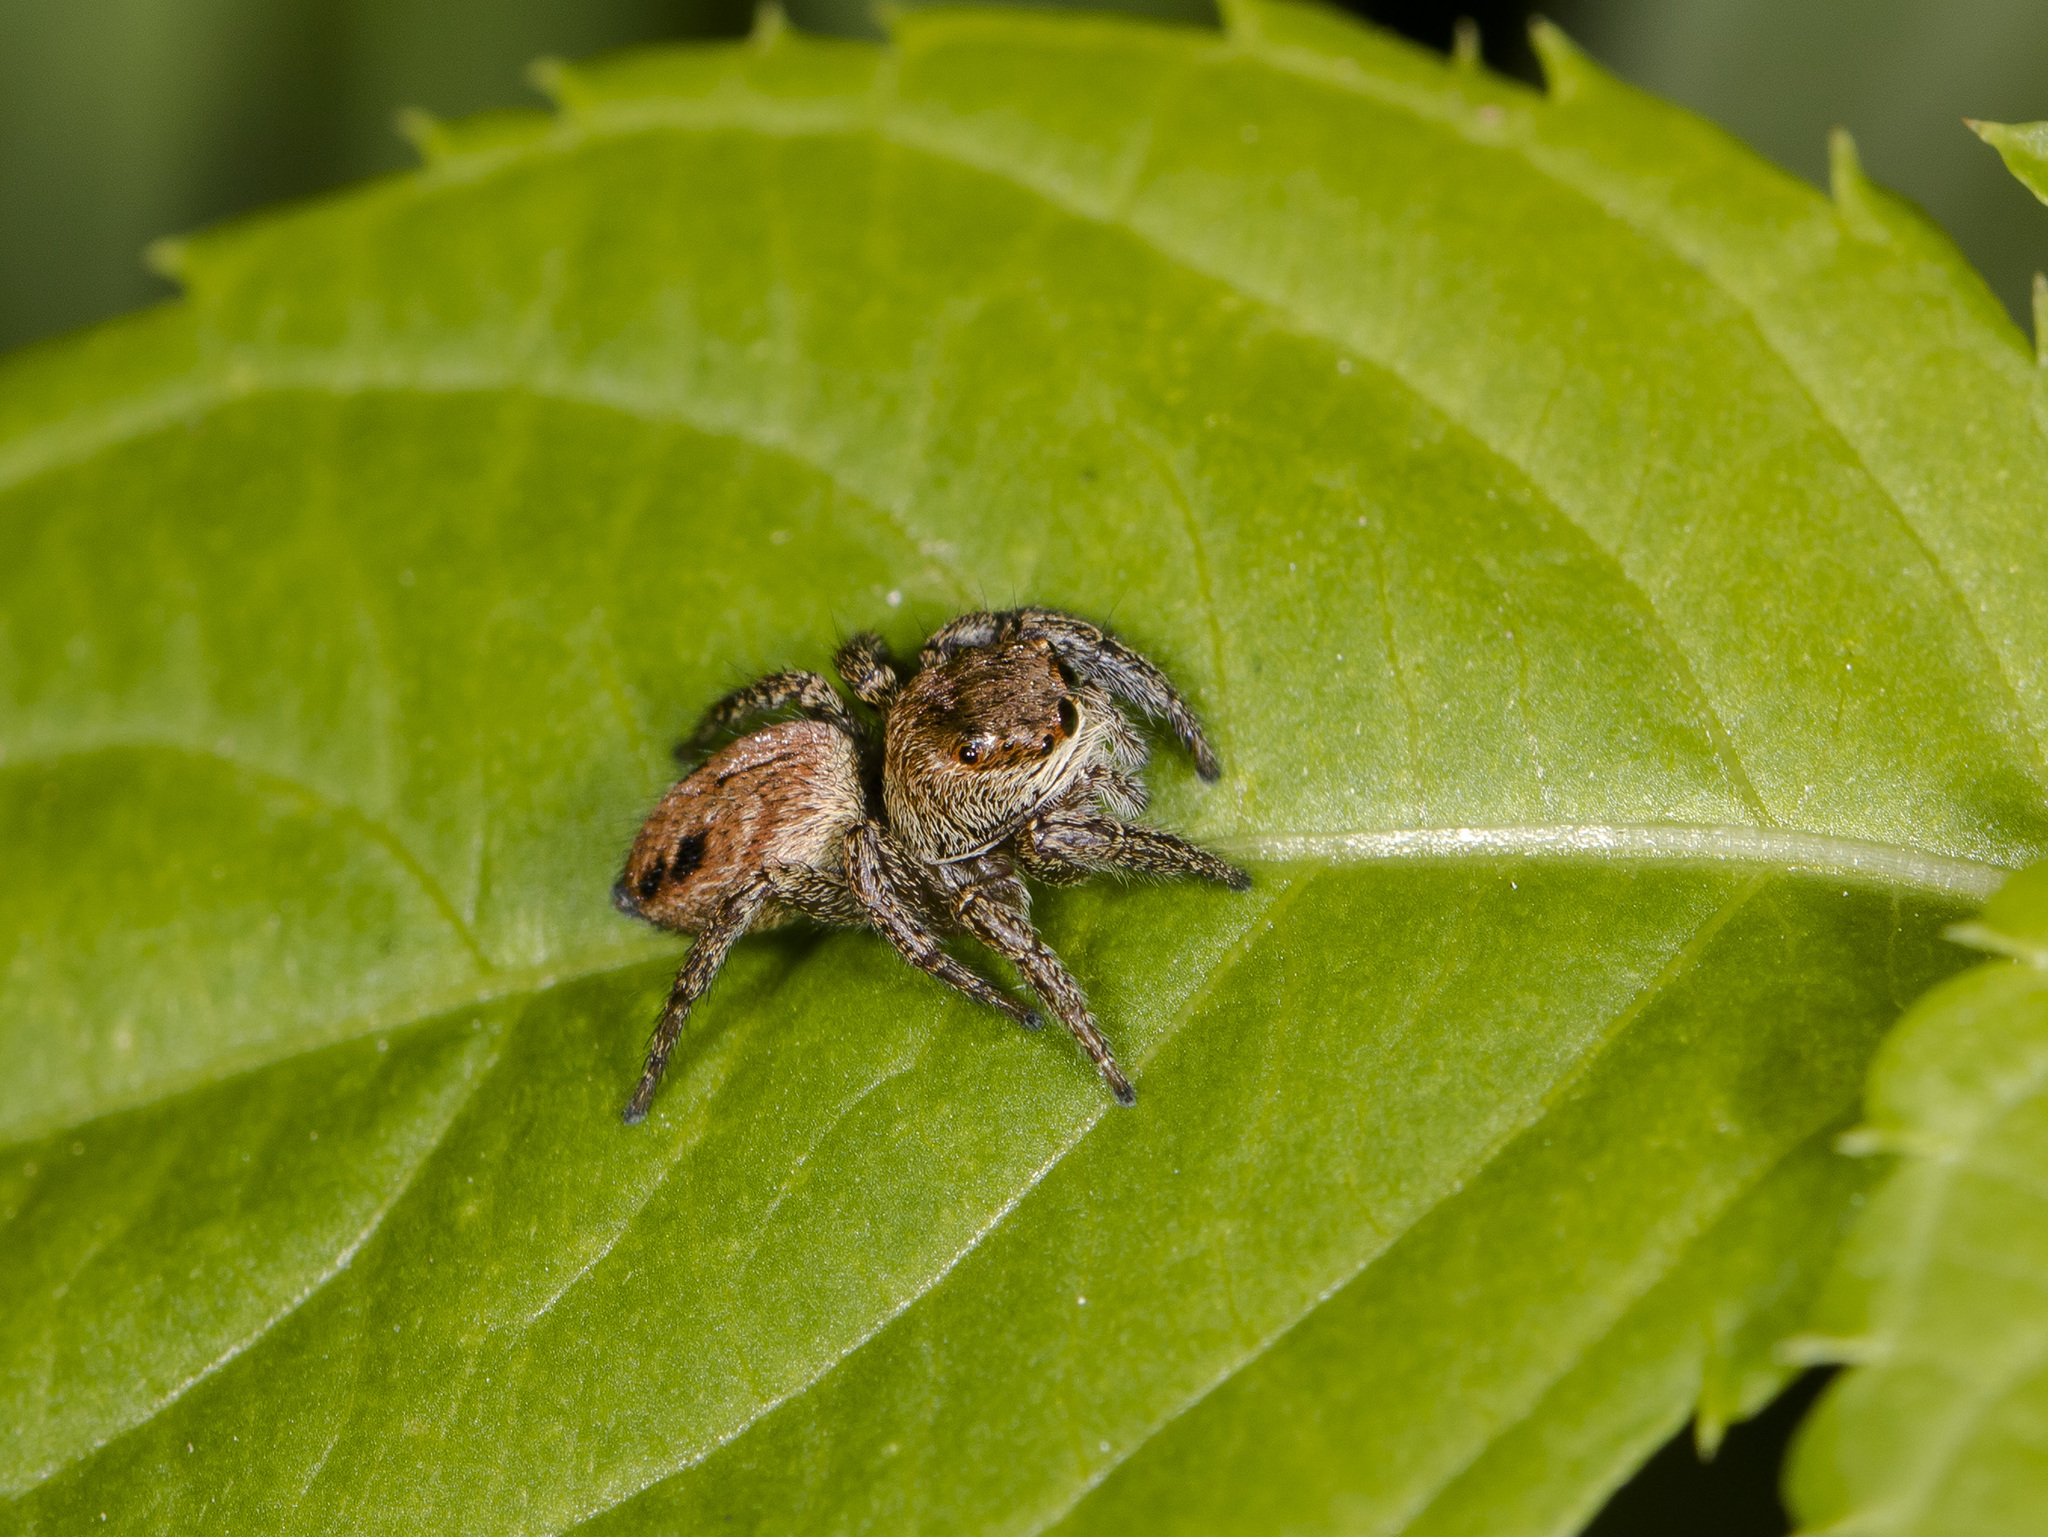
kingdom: Animalia
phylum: Arthropoda
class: Arachnida
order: Araneae
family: Salticidae
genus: Evarcha
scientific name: Evarcha arcuata
